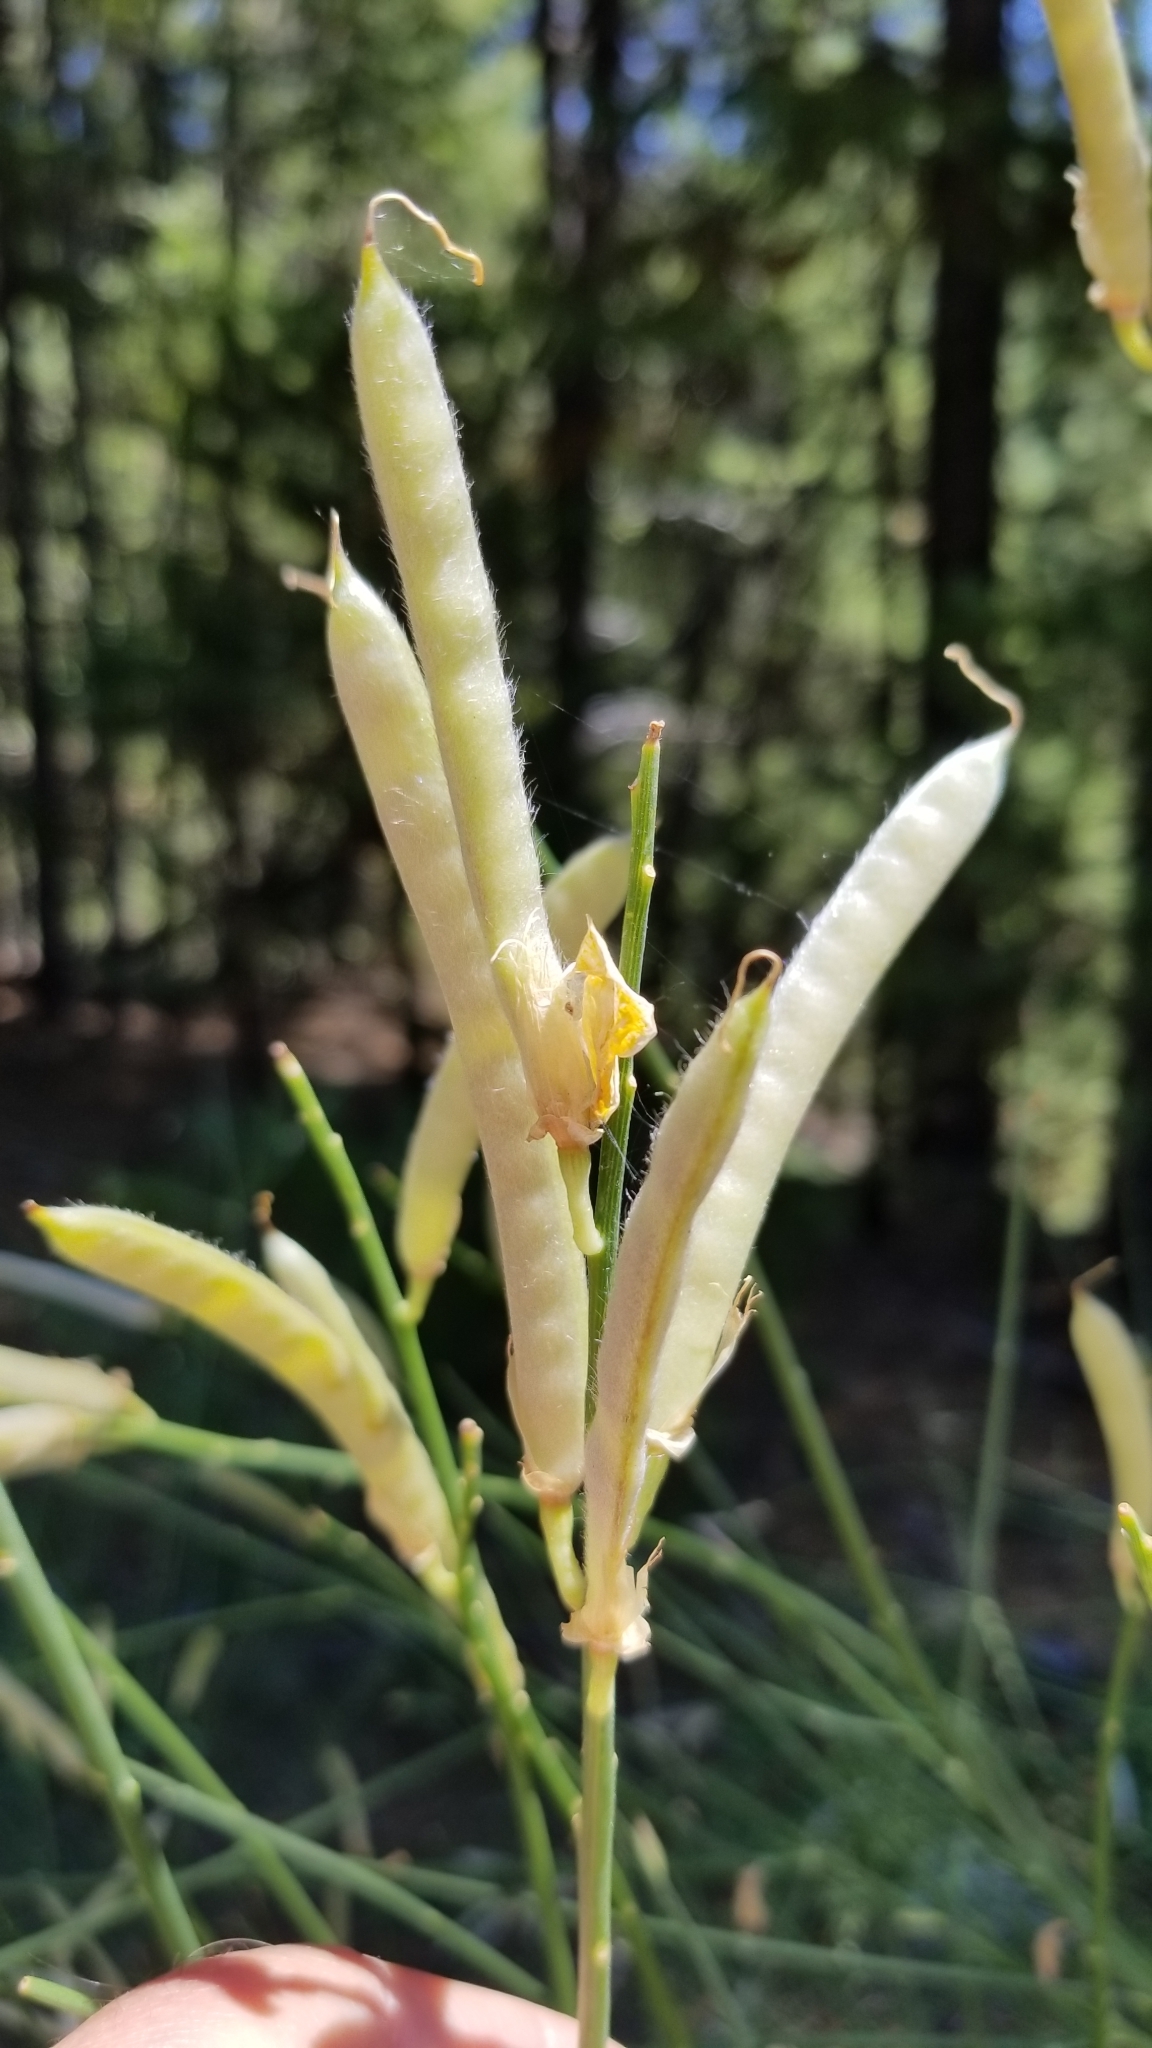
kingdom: Plantae
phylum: Tracheophyta
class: Magnoliopsida
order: Fabales
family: Fabaceae
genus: Spartium
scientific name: Spartium junceum
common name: Spanish broom
